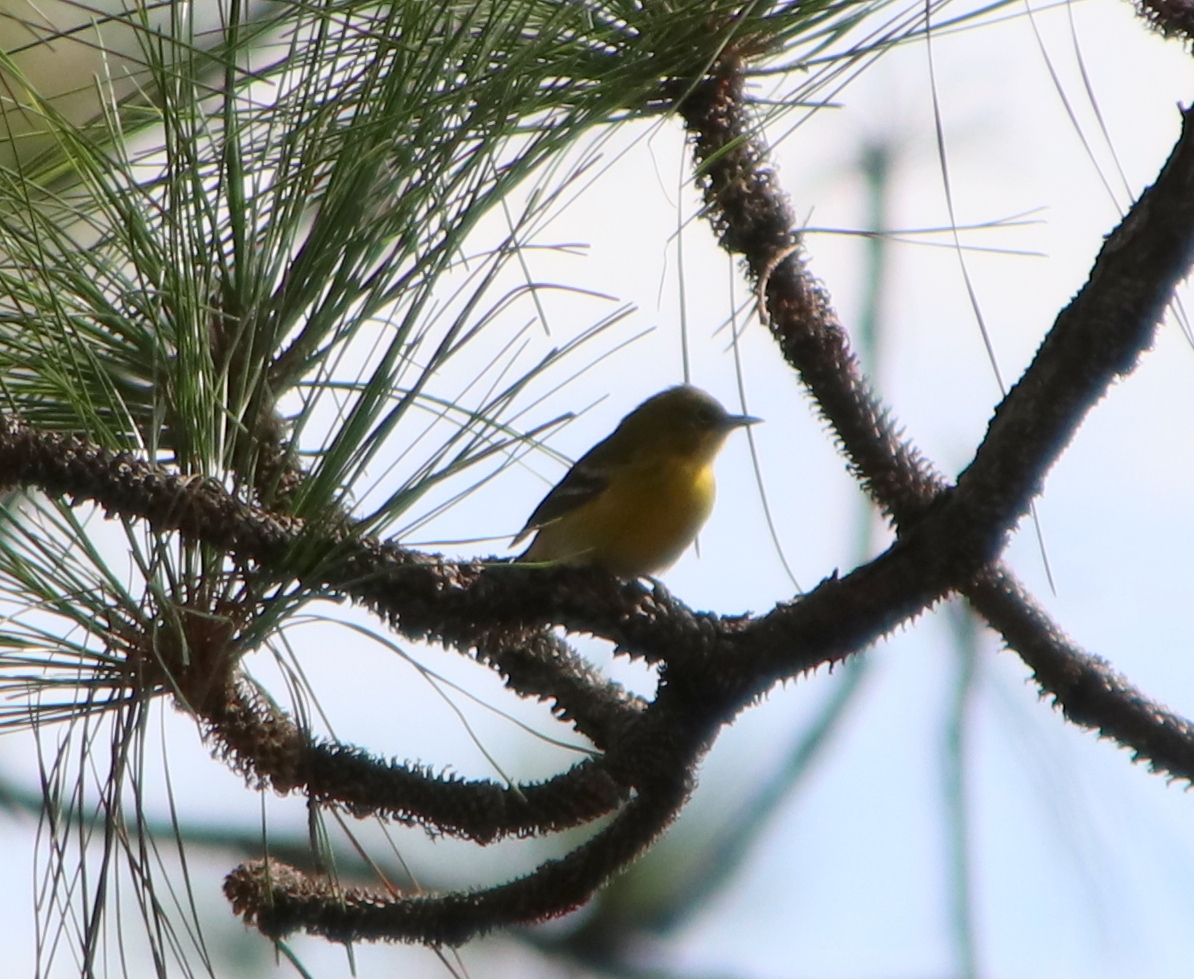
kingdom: Animalia
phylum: Chordata
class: Aves
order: Passeriformes
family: Parulidae
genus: Setophaga
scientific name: Setophaga pinus
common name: Pine warbler
